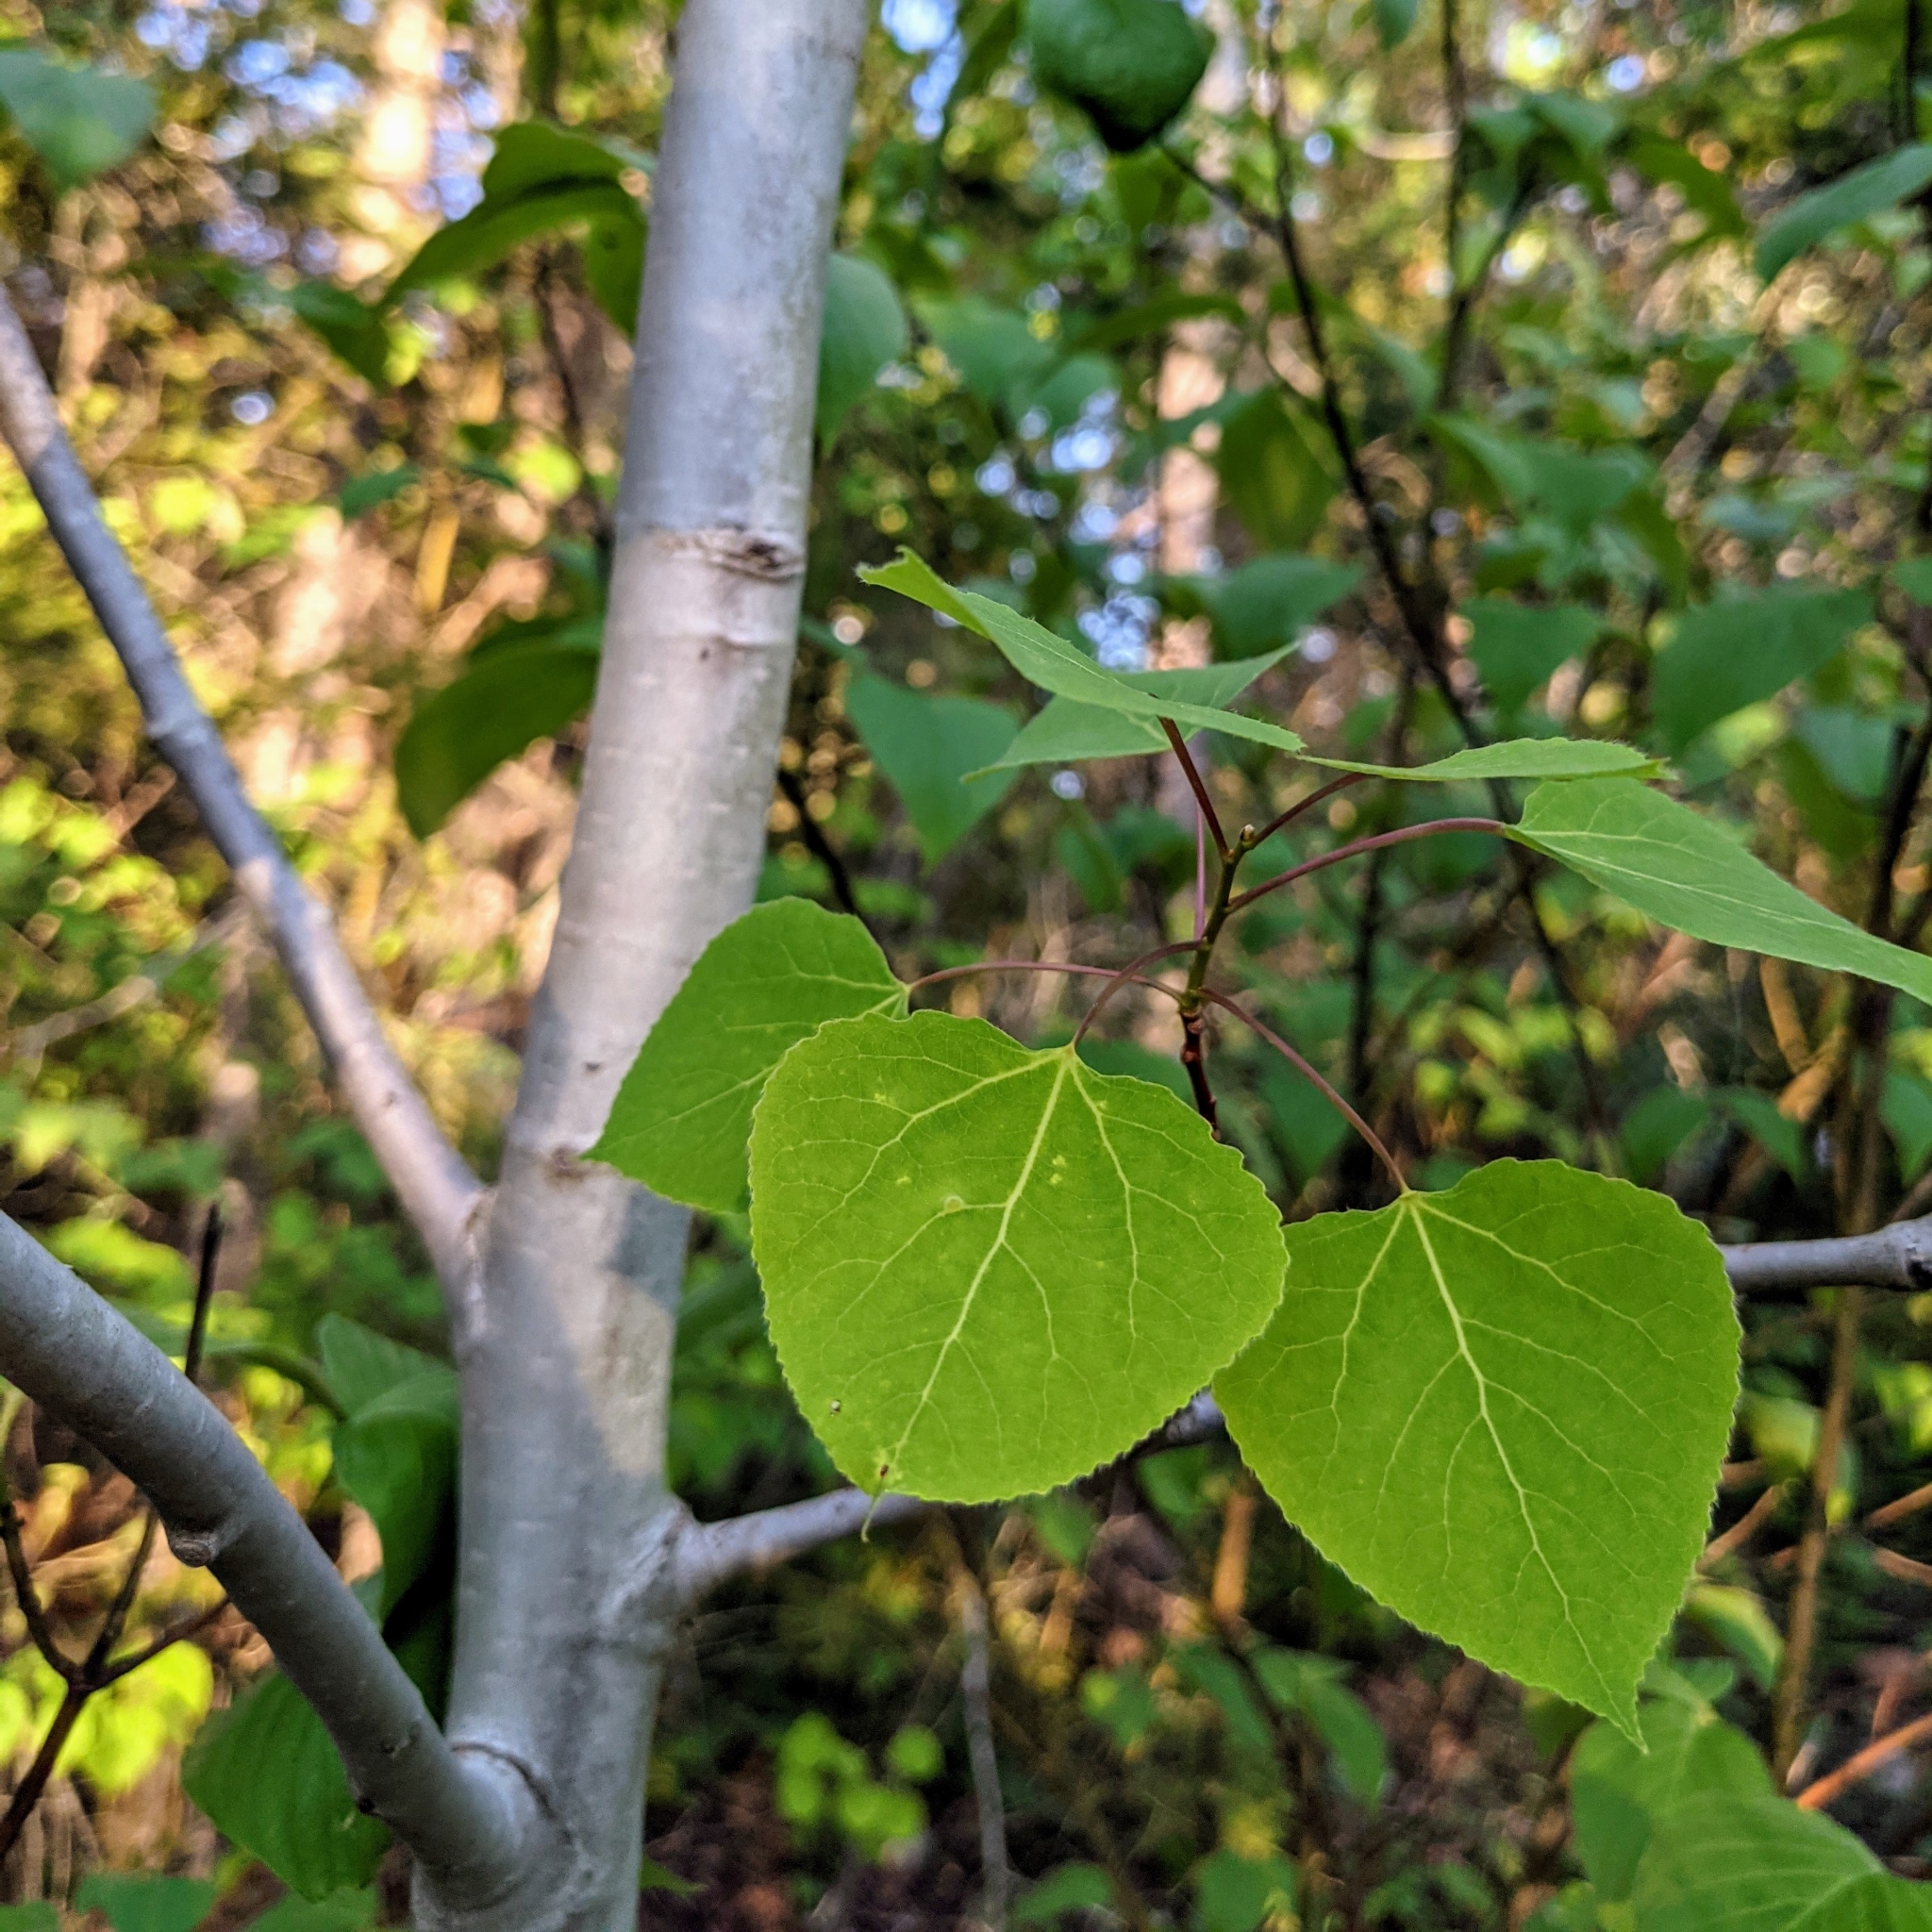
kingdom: Plantae
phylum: Tracheophyta
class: Magnoliopsida
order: Malpighiales
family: Salicaceae
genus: Populus
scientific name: Populus tremuloides
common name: Quaking aspen
